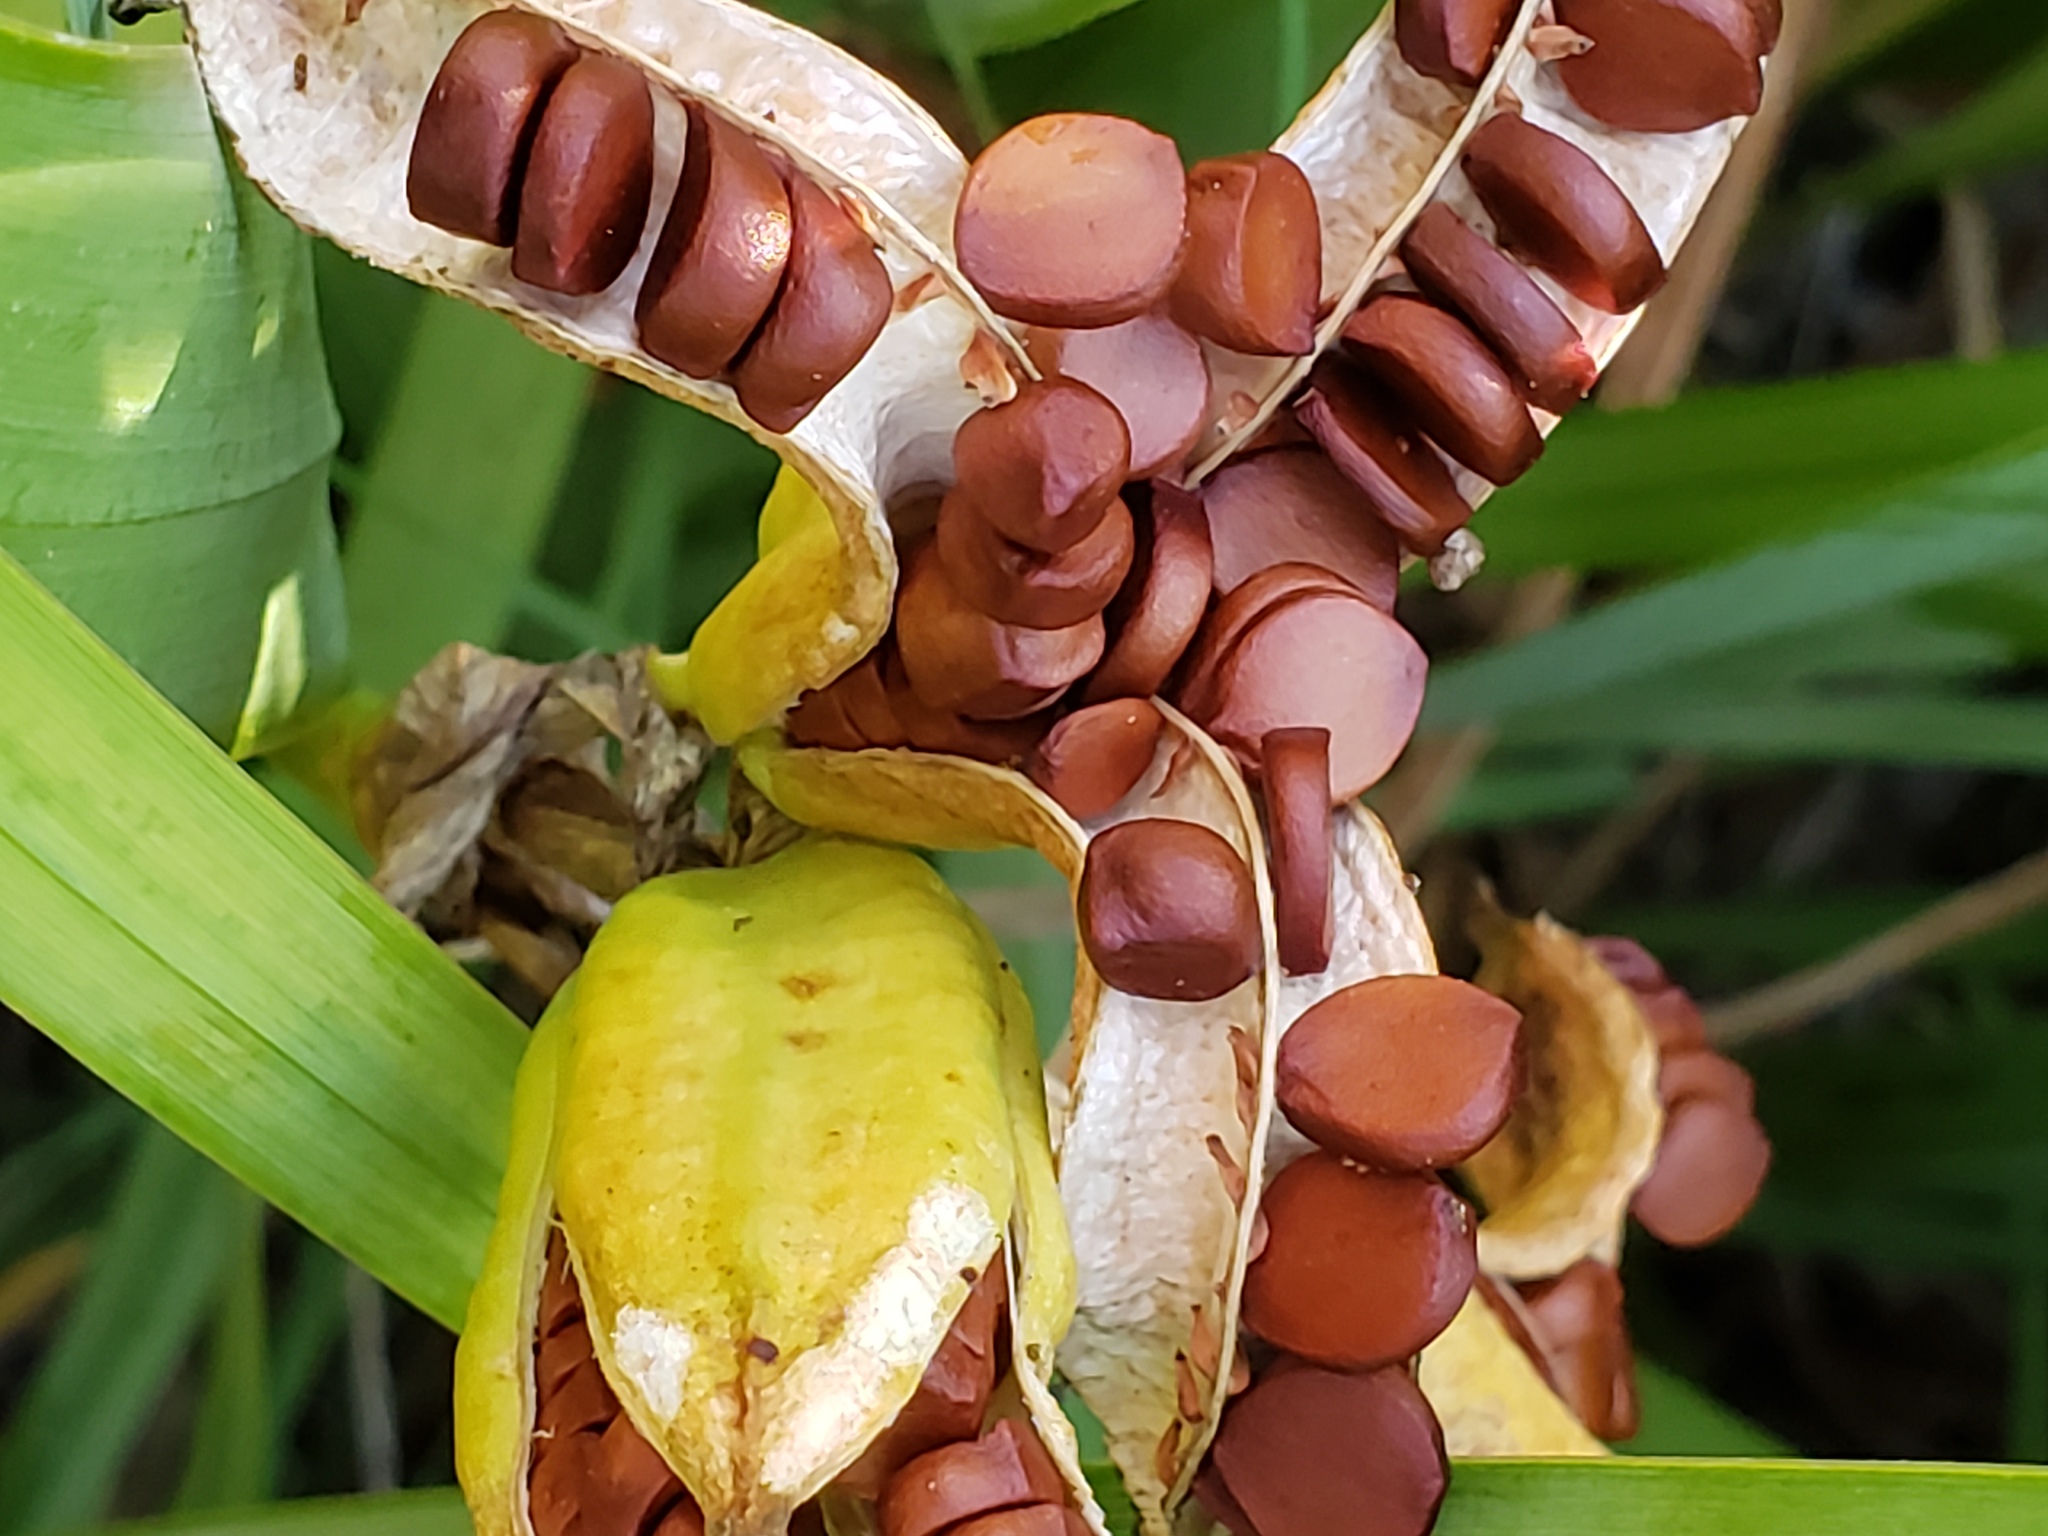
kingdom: Plantae
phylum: Tracheophyta
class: Liliopsida
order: Asparagales
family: Iridaceae
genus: Iris
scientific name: Iris pseudacorus
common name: Yellow flag
